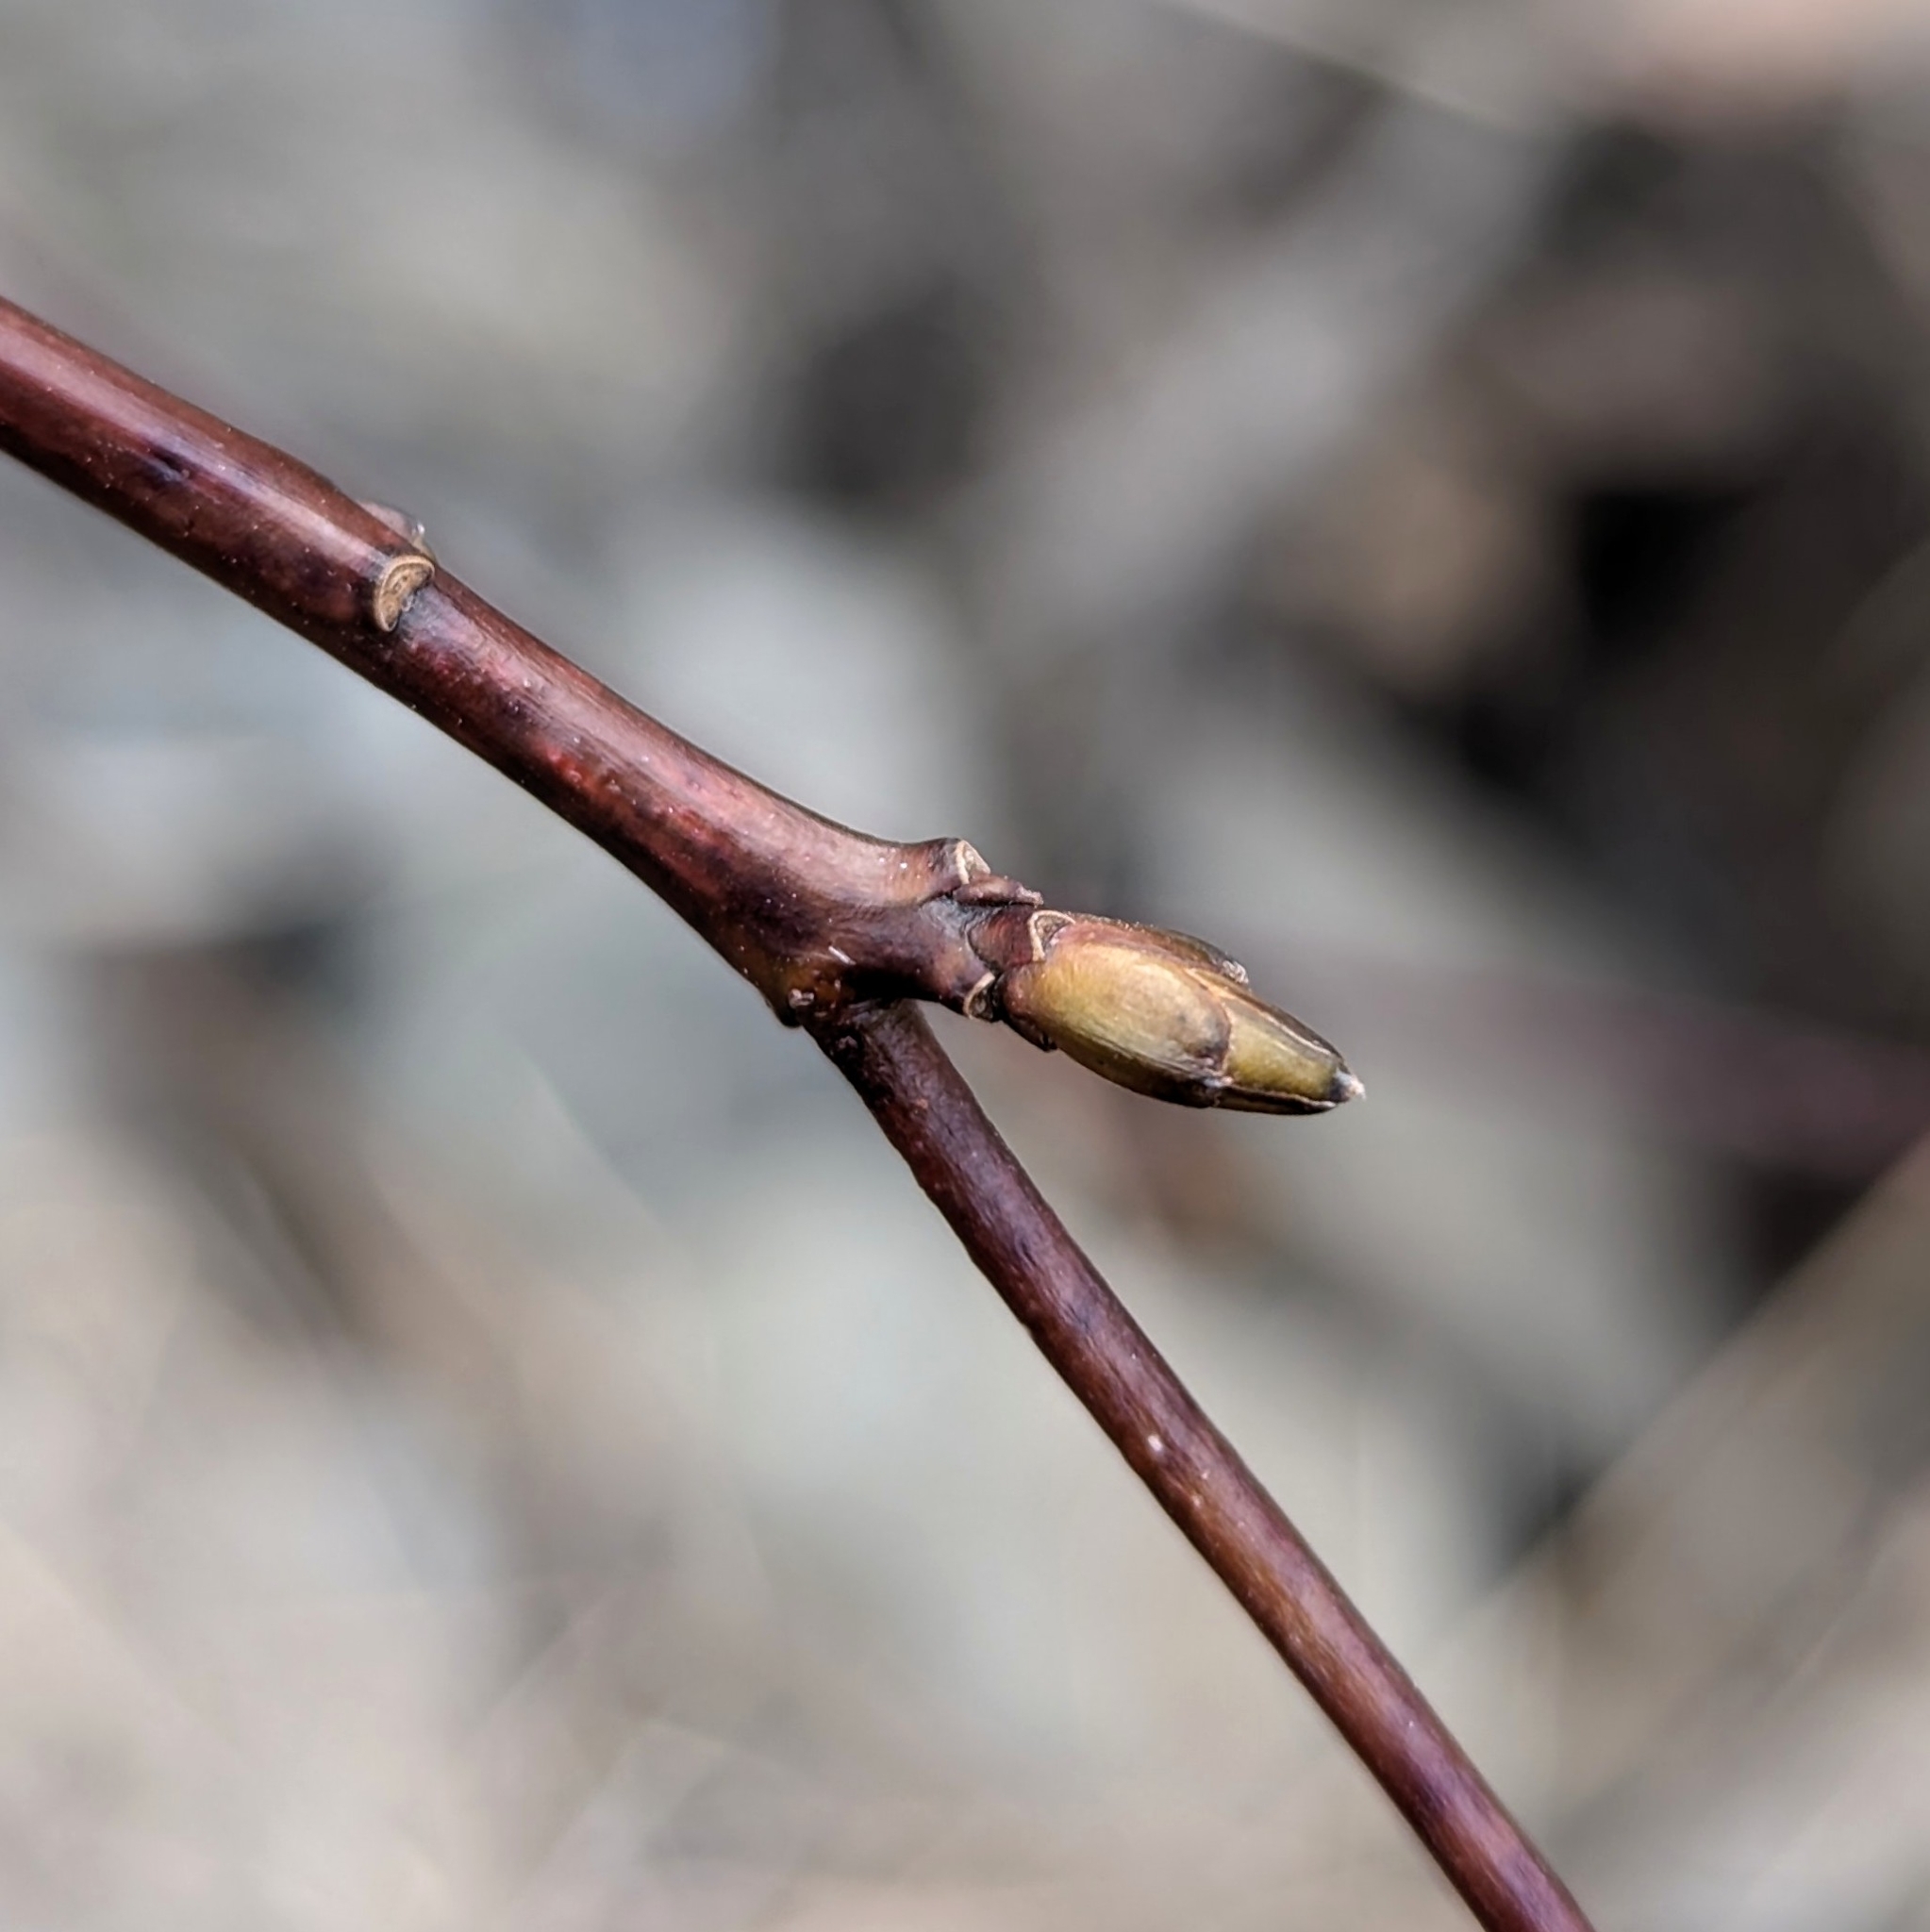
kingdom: Plantae
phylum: Tracheophyta
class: Magnoliopsida
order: Cornales
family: Cornaceae
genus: Cornus
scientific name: Cornus alternifolia
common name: Pagoda dogwood
